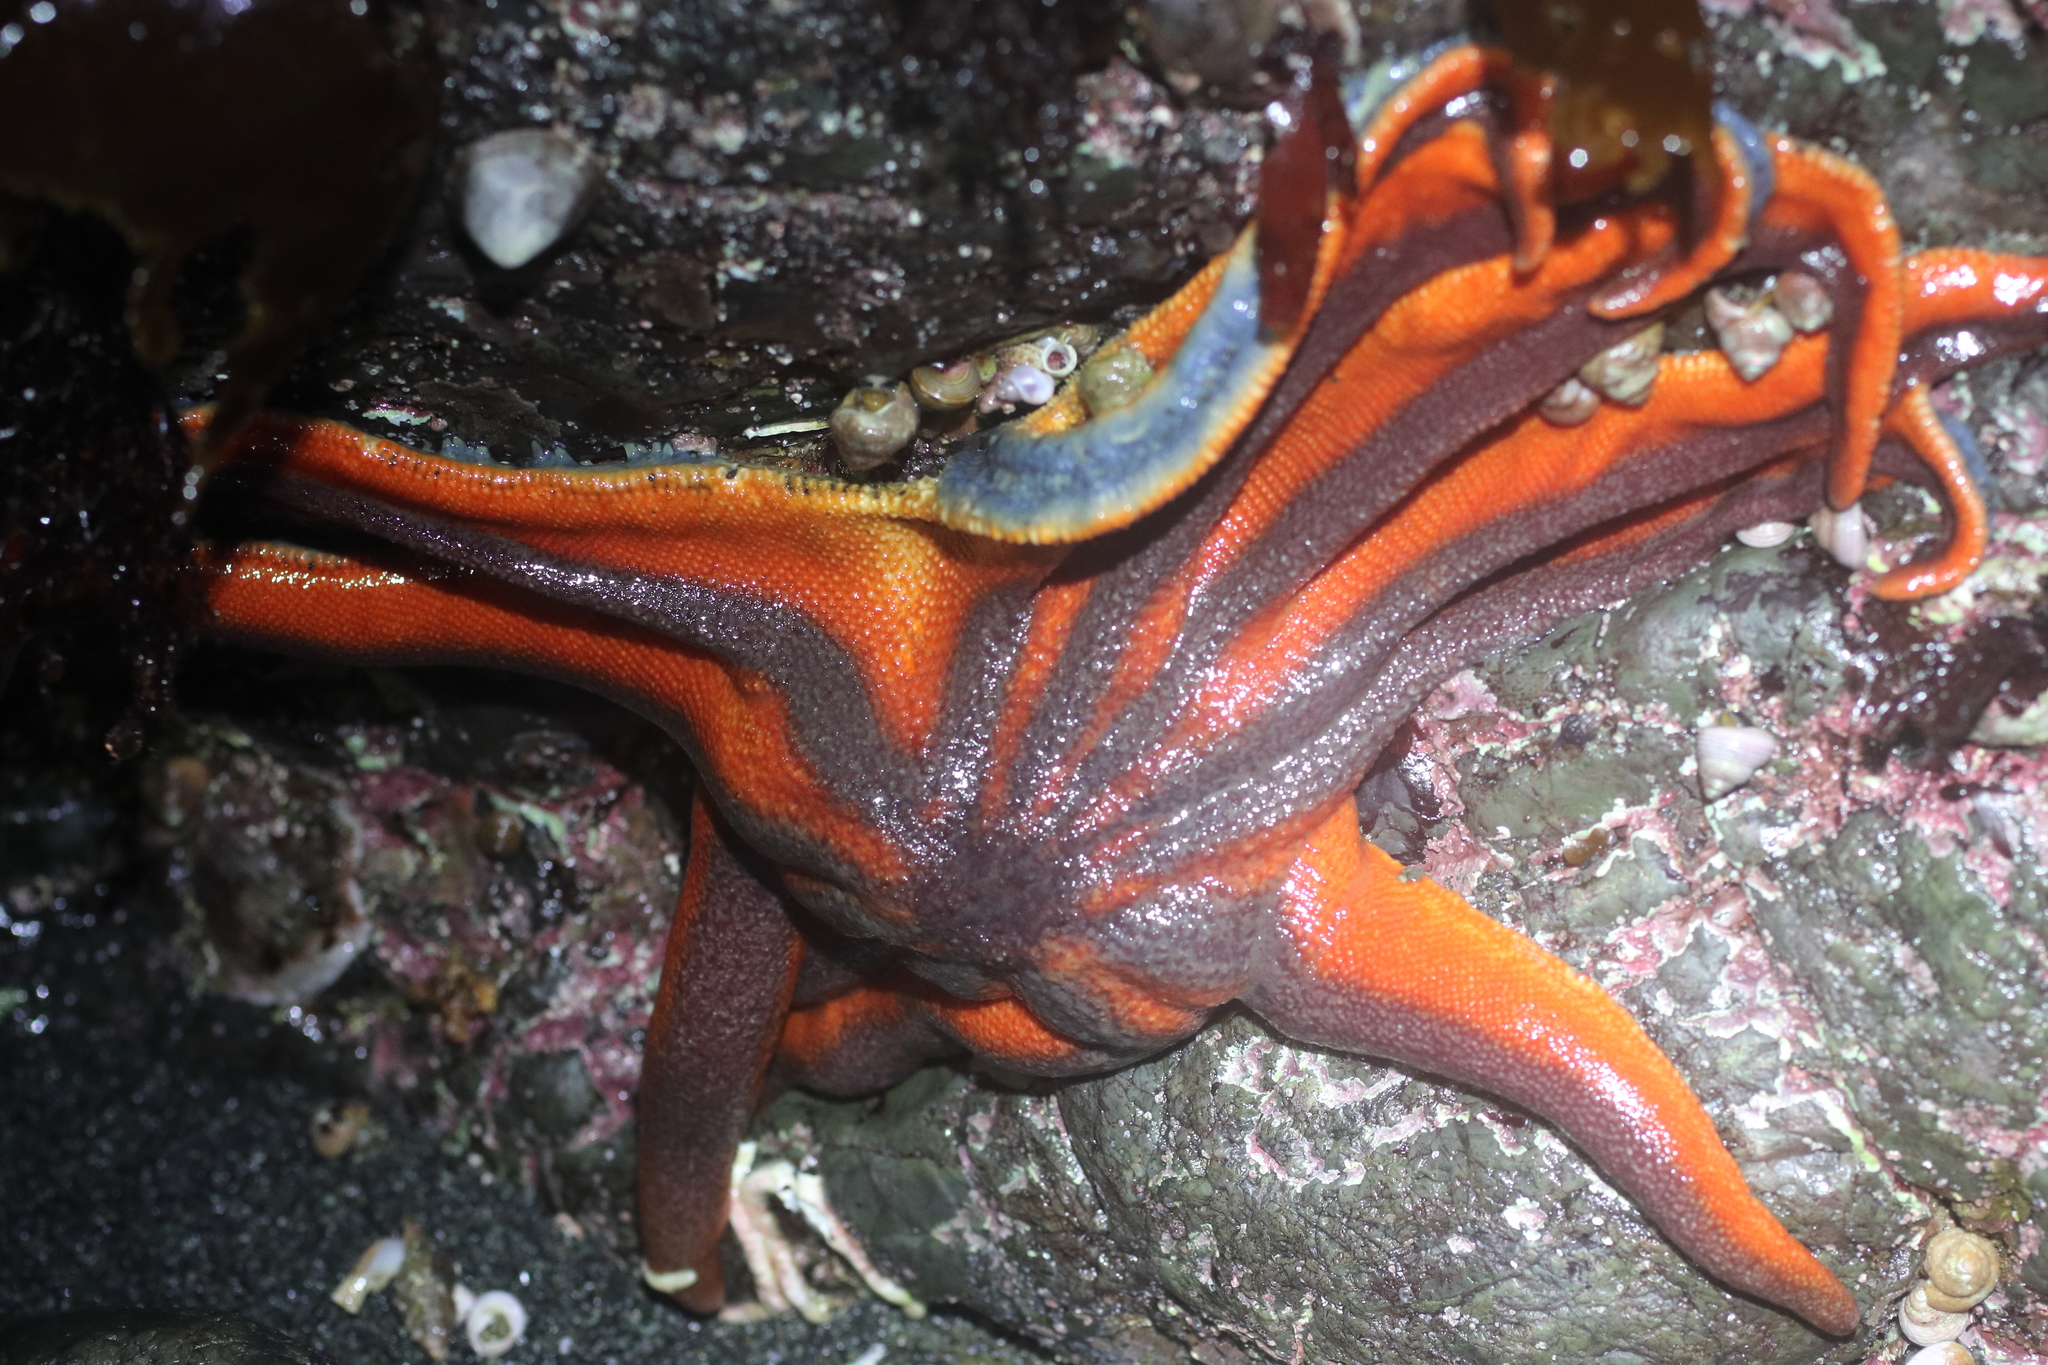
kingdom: Animalia
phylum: Echinodermata
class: Asteroidea
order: Valvatida
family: Solasteridae
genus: Solaster
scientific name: Solaster stimpsoni
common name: Orange sun star
